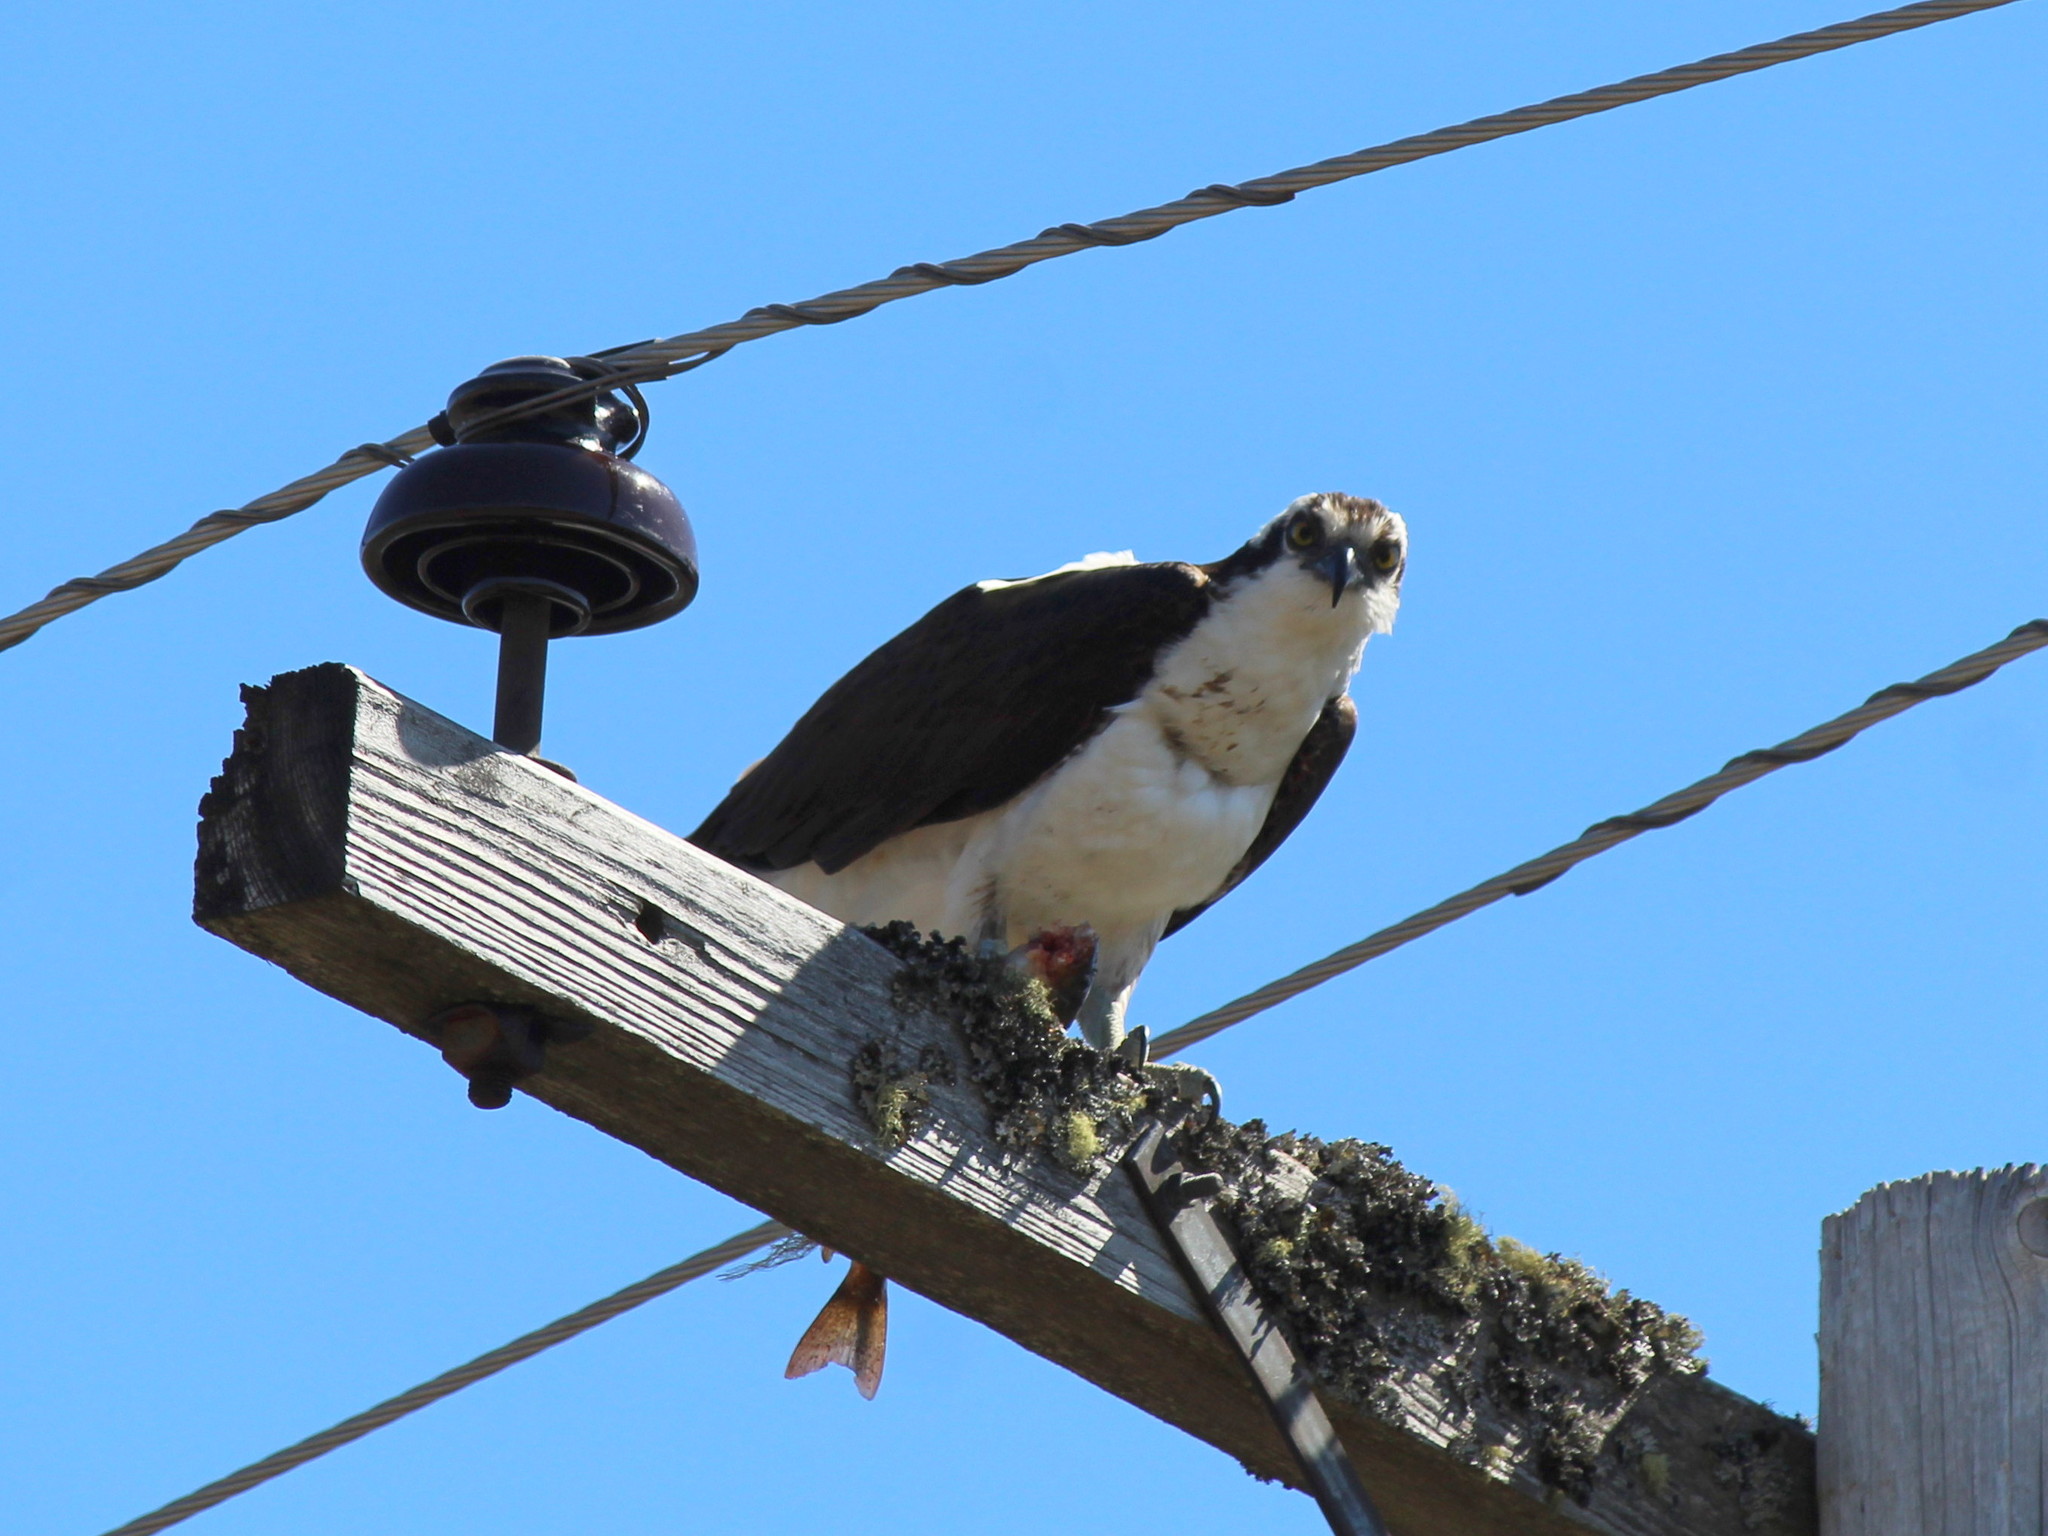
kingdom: Animalia
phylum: Chordata
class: Aves
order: Accipitriformes
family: Pandionidae
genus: Pandion
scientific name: Pandion haliaetus
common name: Osprey
